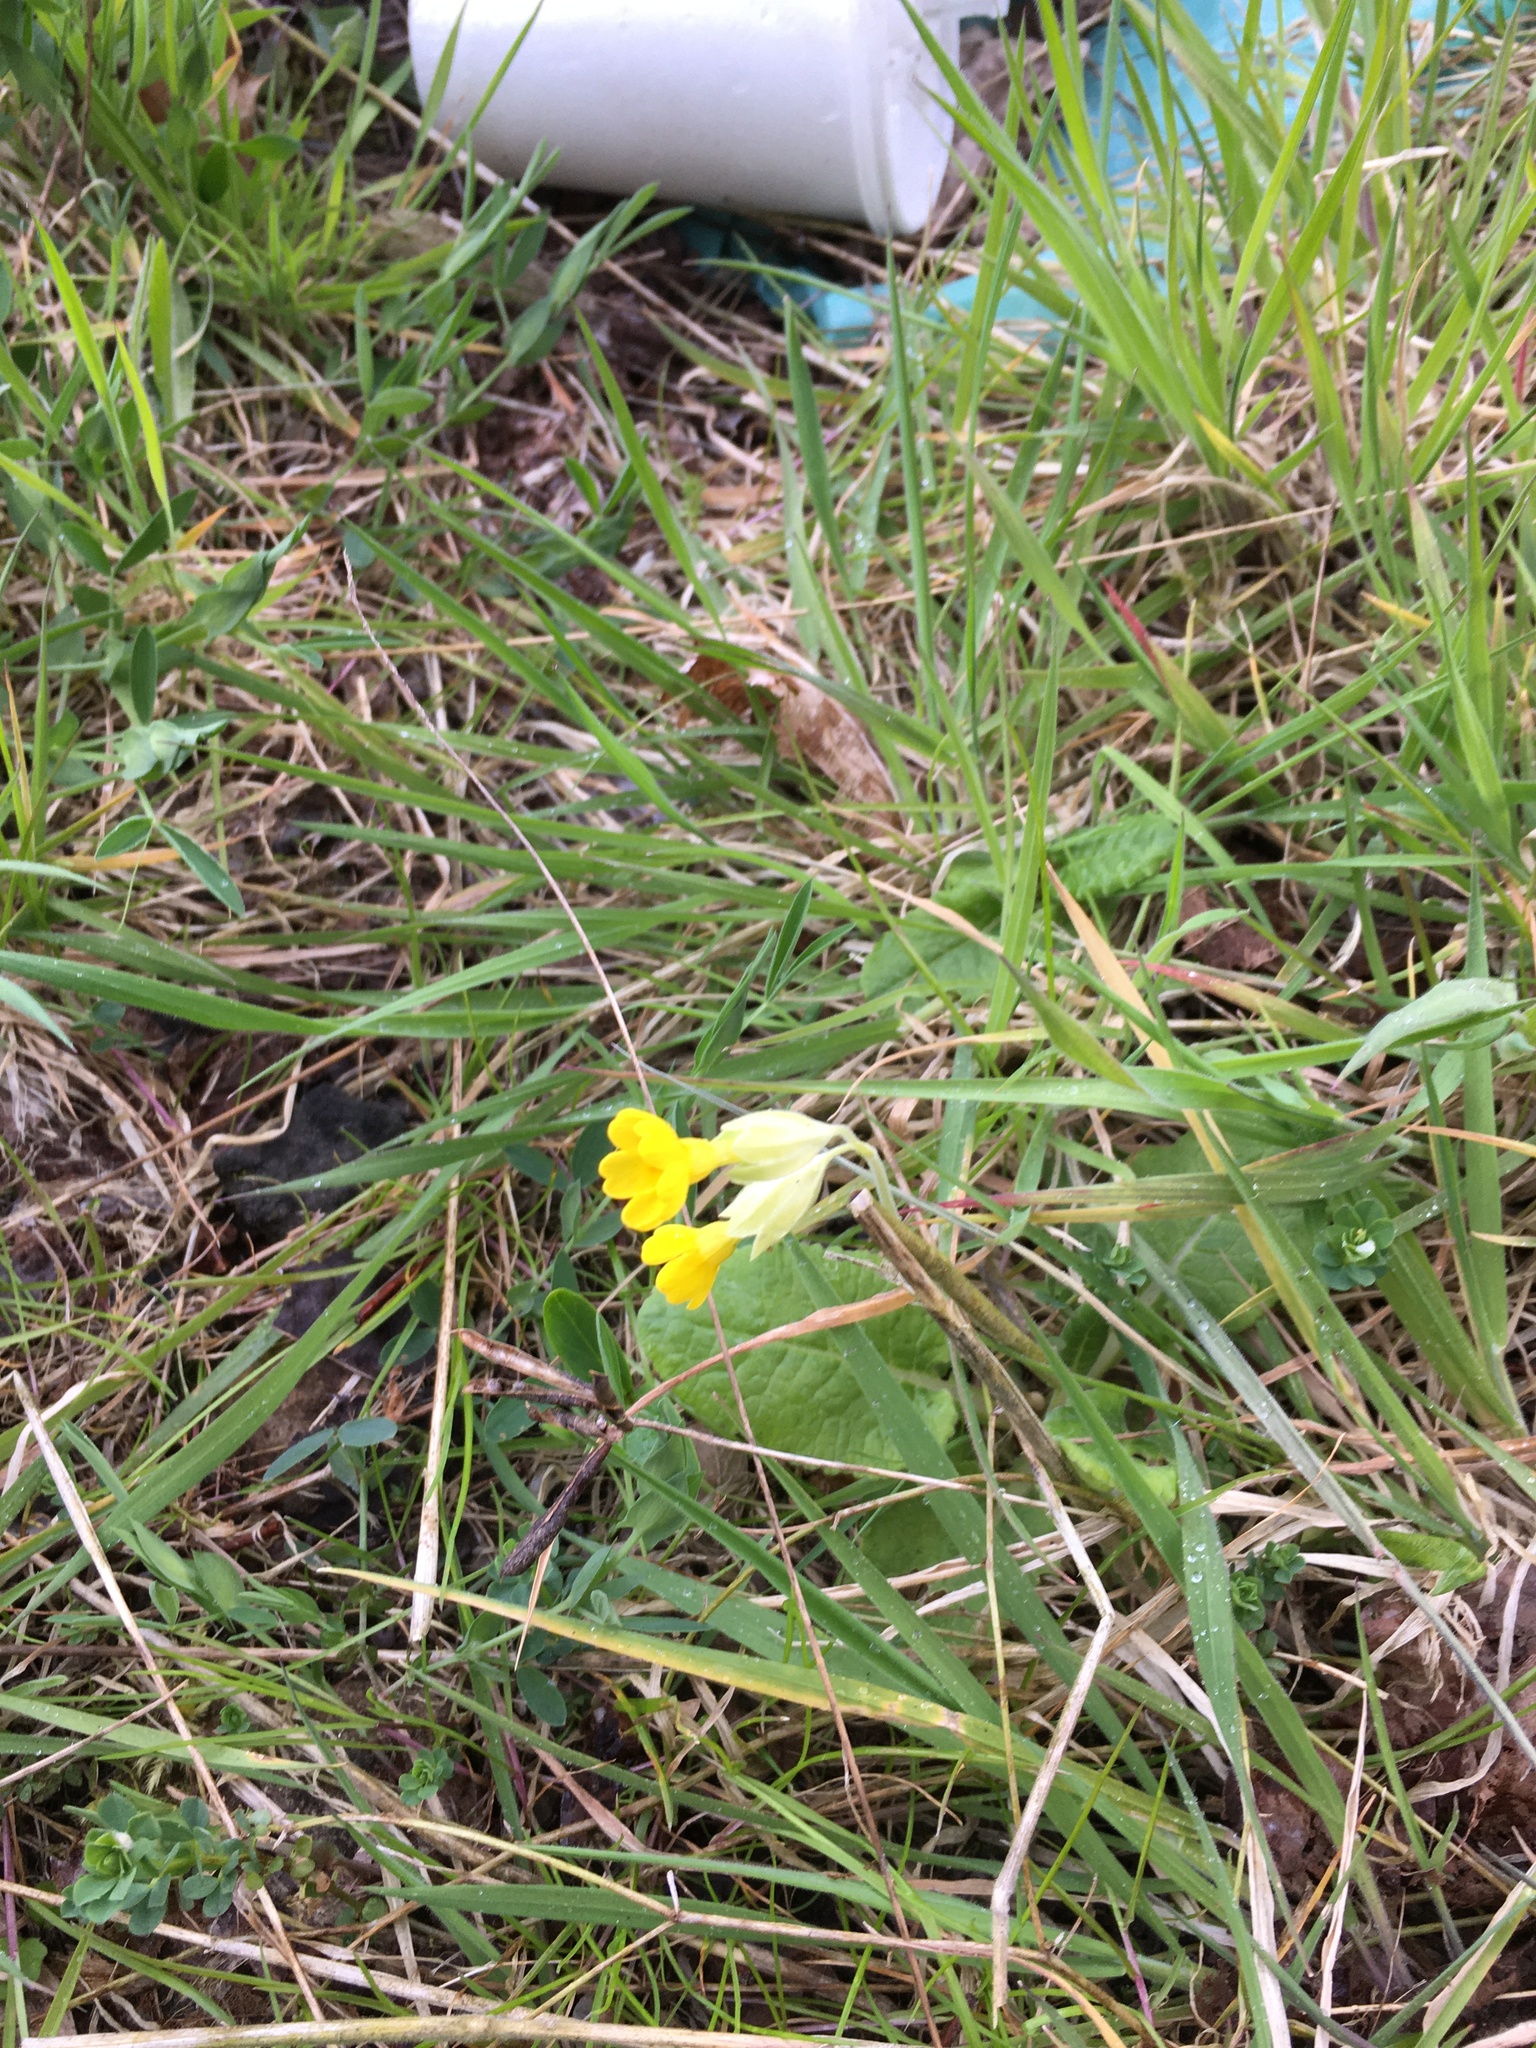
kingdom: Plantae
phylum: Tracheophyta
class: Magnoliopsida
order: Ericales
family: Primulaceae
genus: Primula
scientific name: Primula veris
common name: Cowslip
